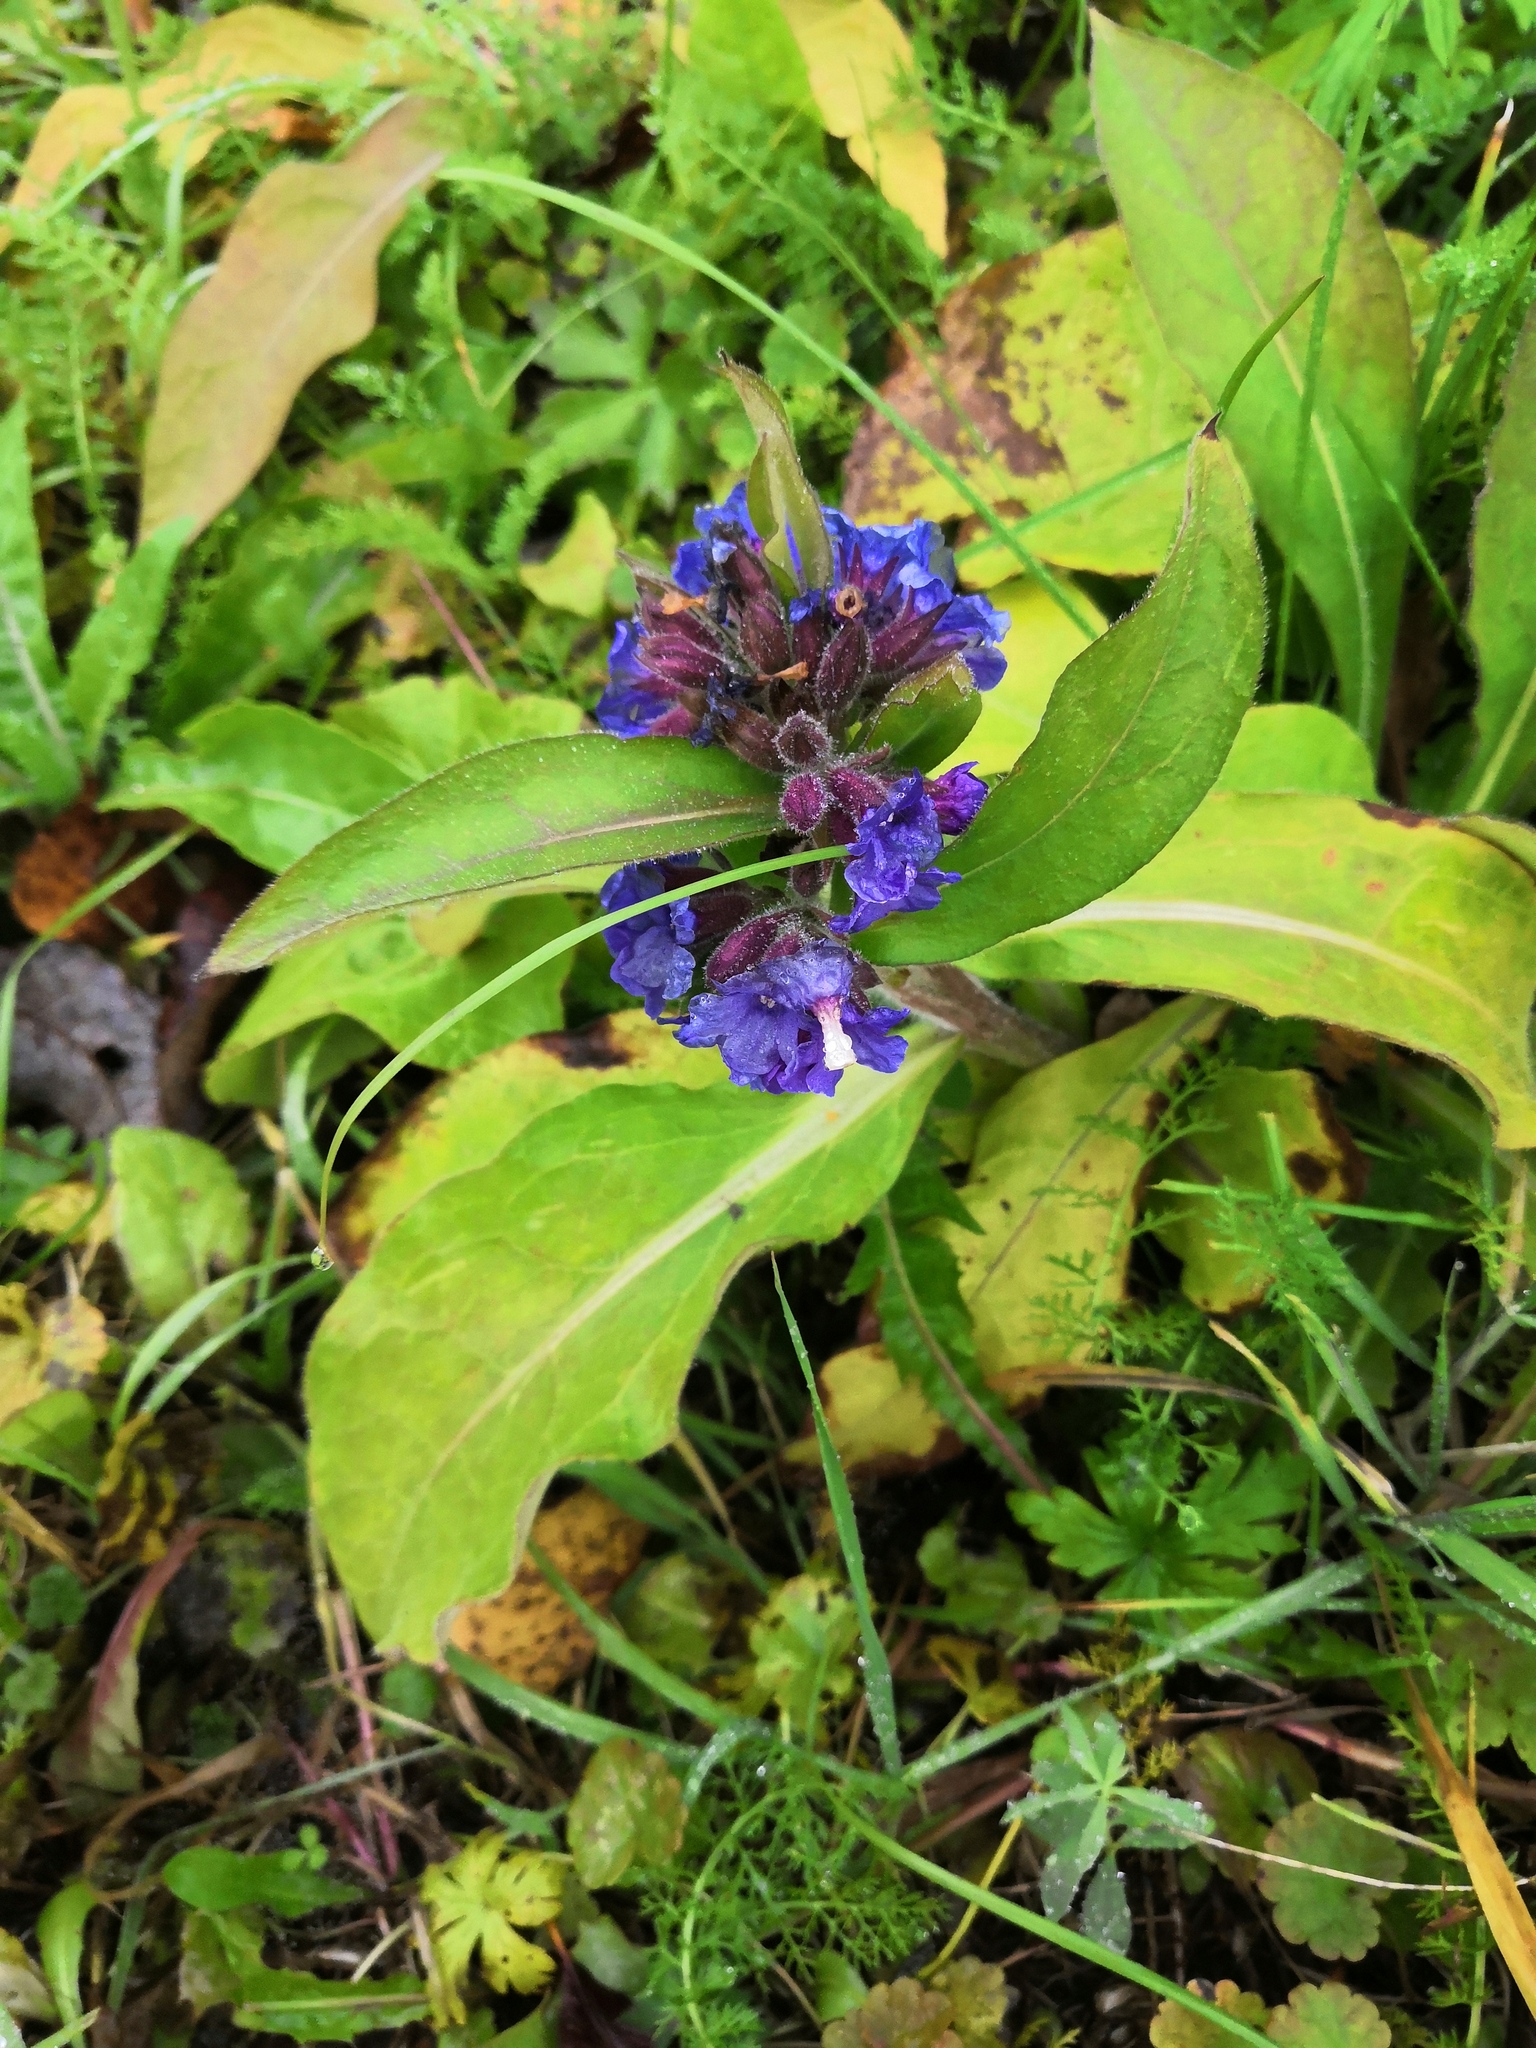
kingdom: Plantae
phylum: Tracheophyta
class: Magnoliopsida
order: Boraginales
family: Boraginaceae
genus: Pulmonaria
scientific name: Pulmonaria mollis
